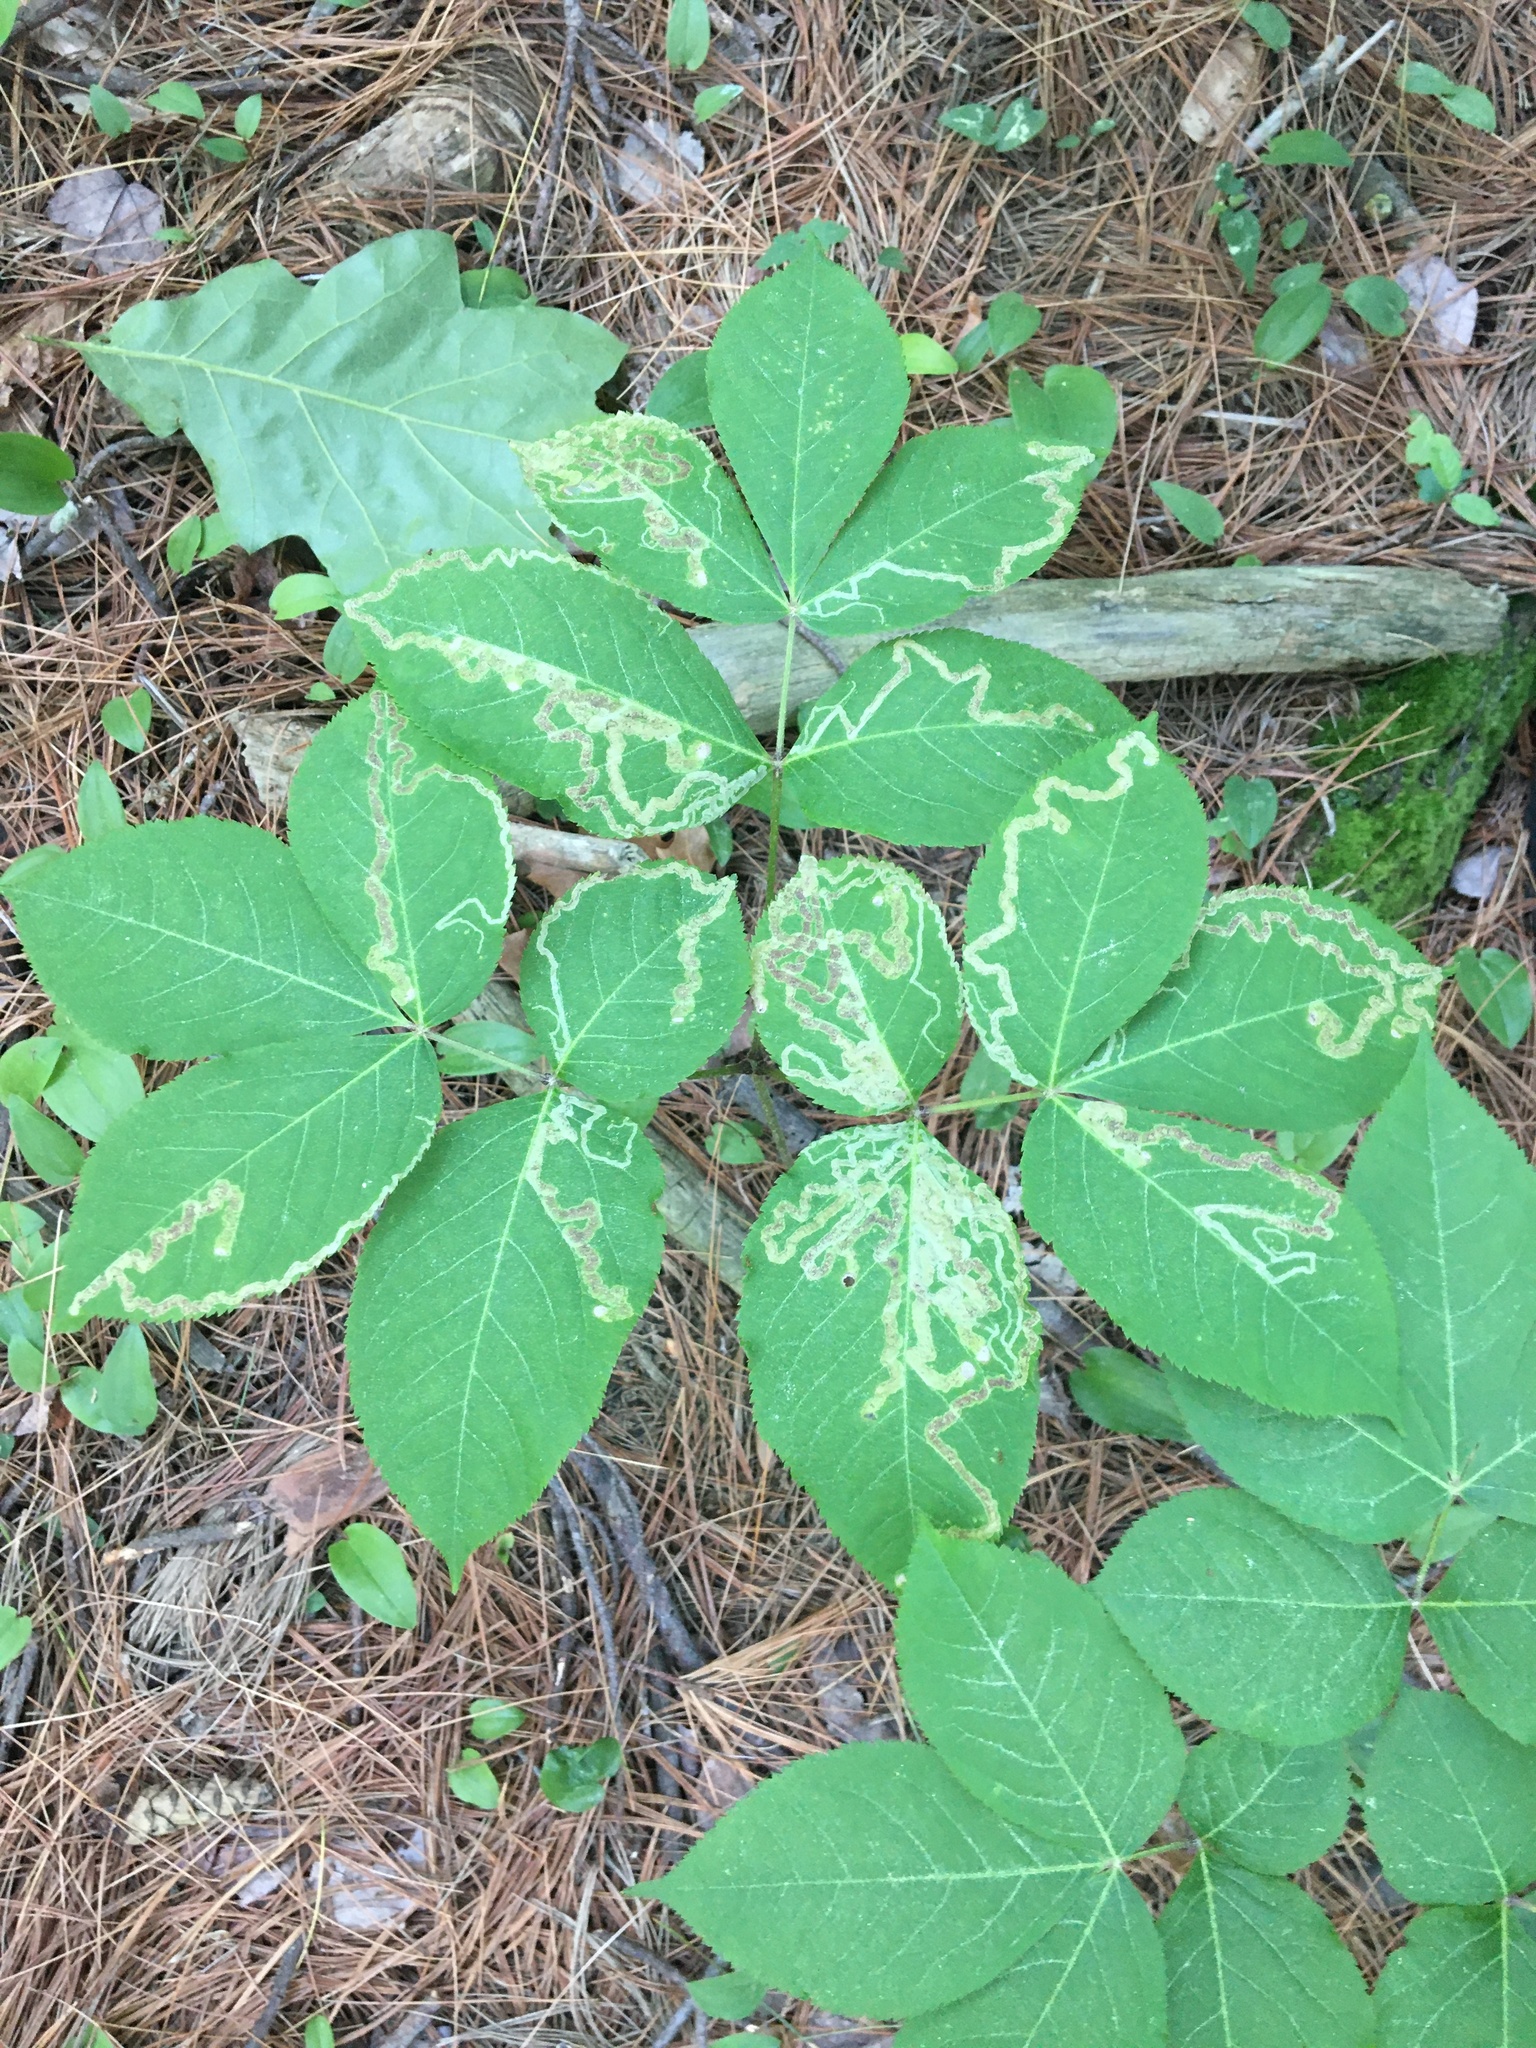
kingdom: Animalia
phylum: Arthropoda
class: Insecta
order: Diptera
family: Agromyzidae
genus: Phytomyza
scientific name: Phytomyza aralivora
